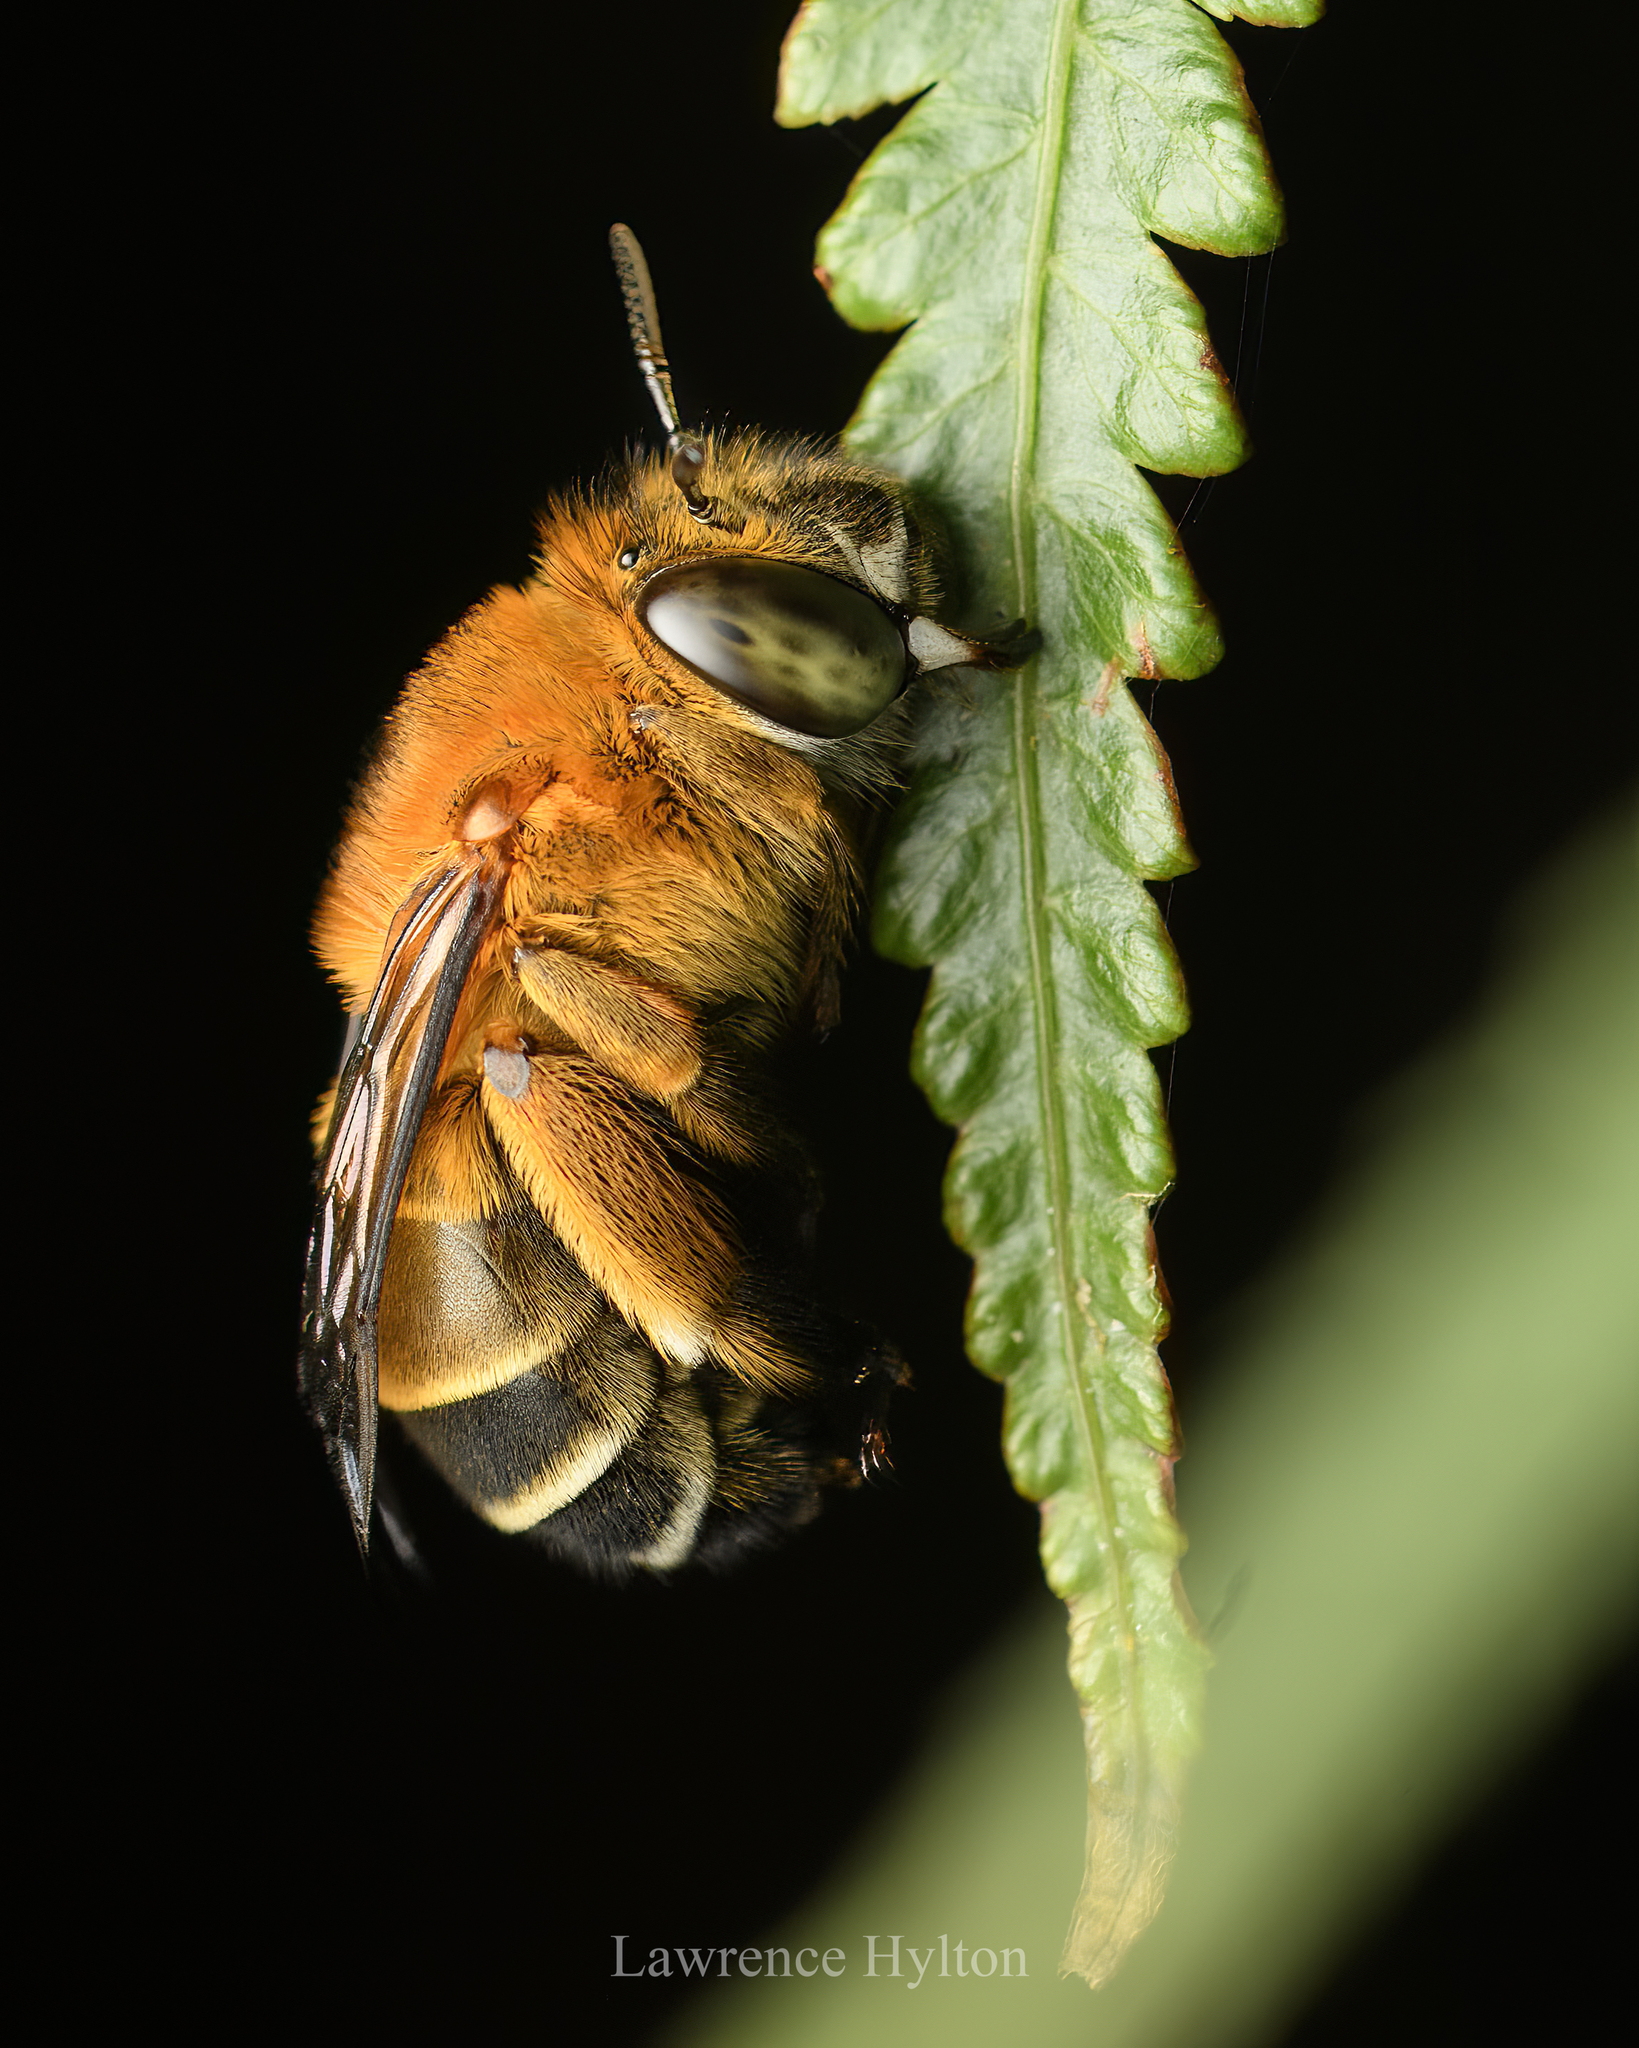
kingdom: Animalia
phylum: Arthropoda
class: Insecta
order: Hymenoptera
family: Apidae
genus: Amegilla
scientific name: Amegilla florea
